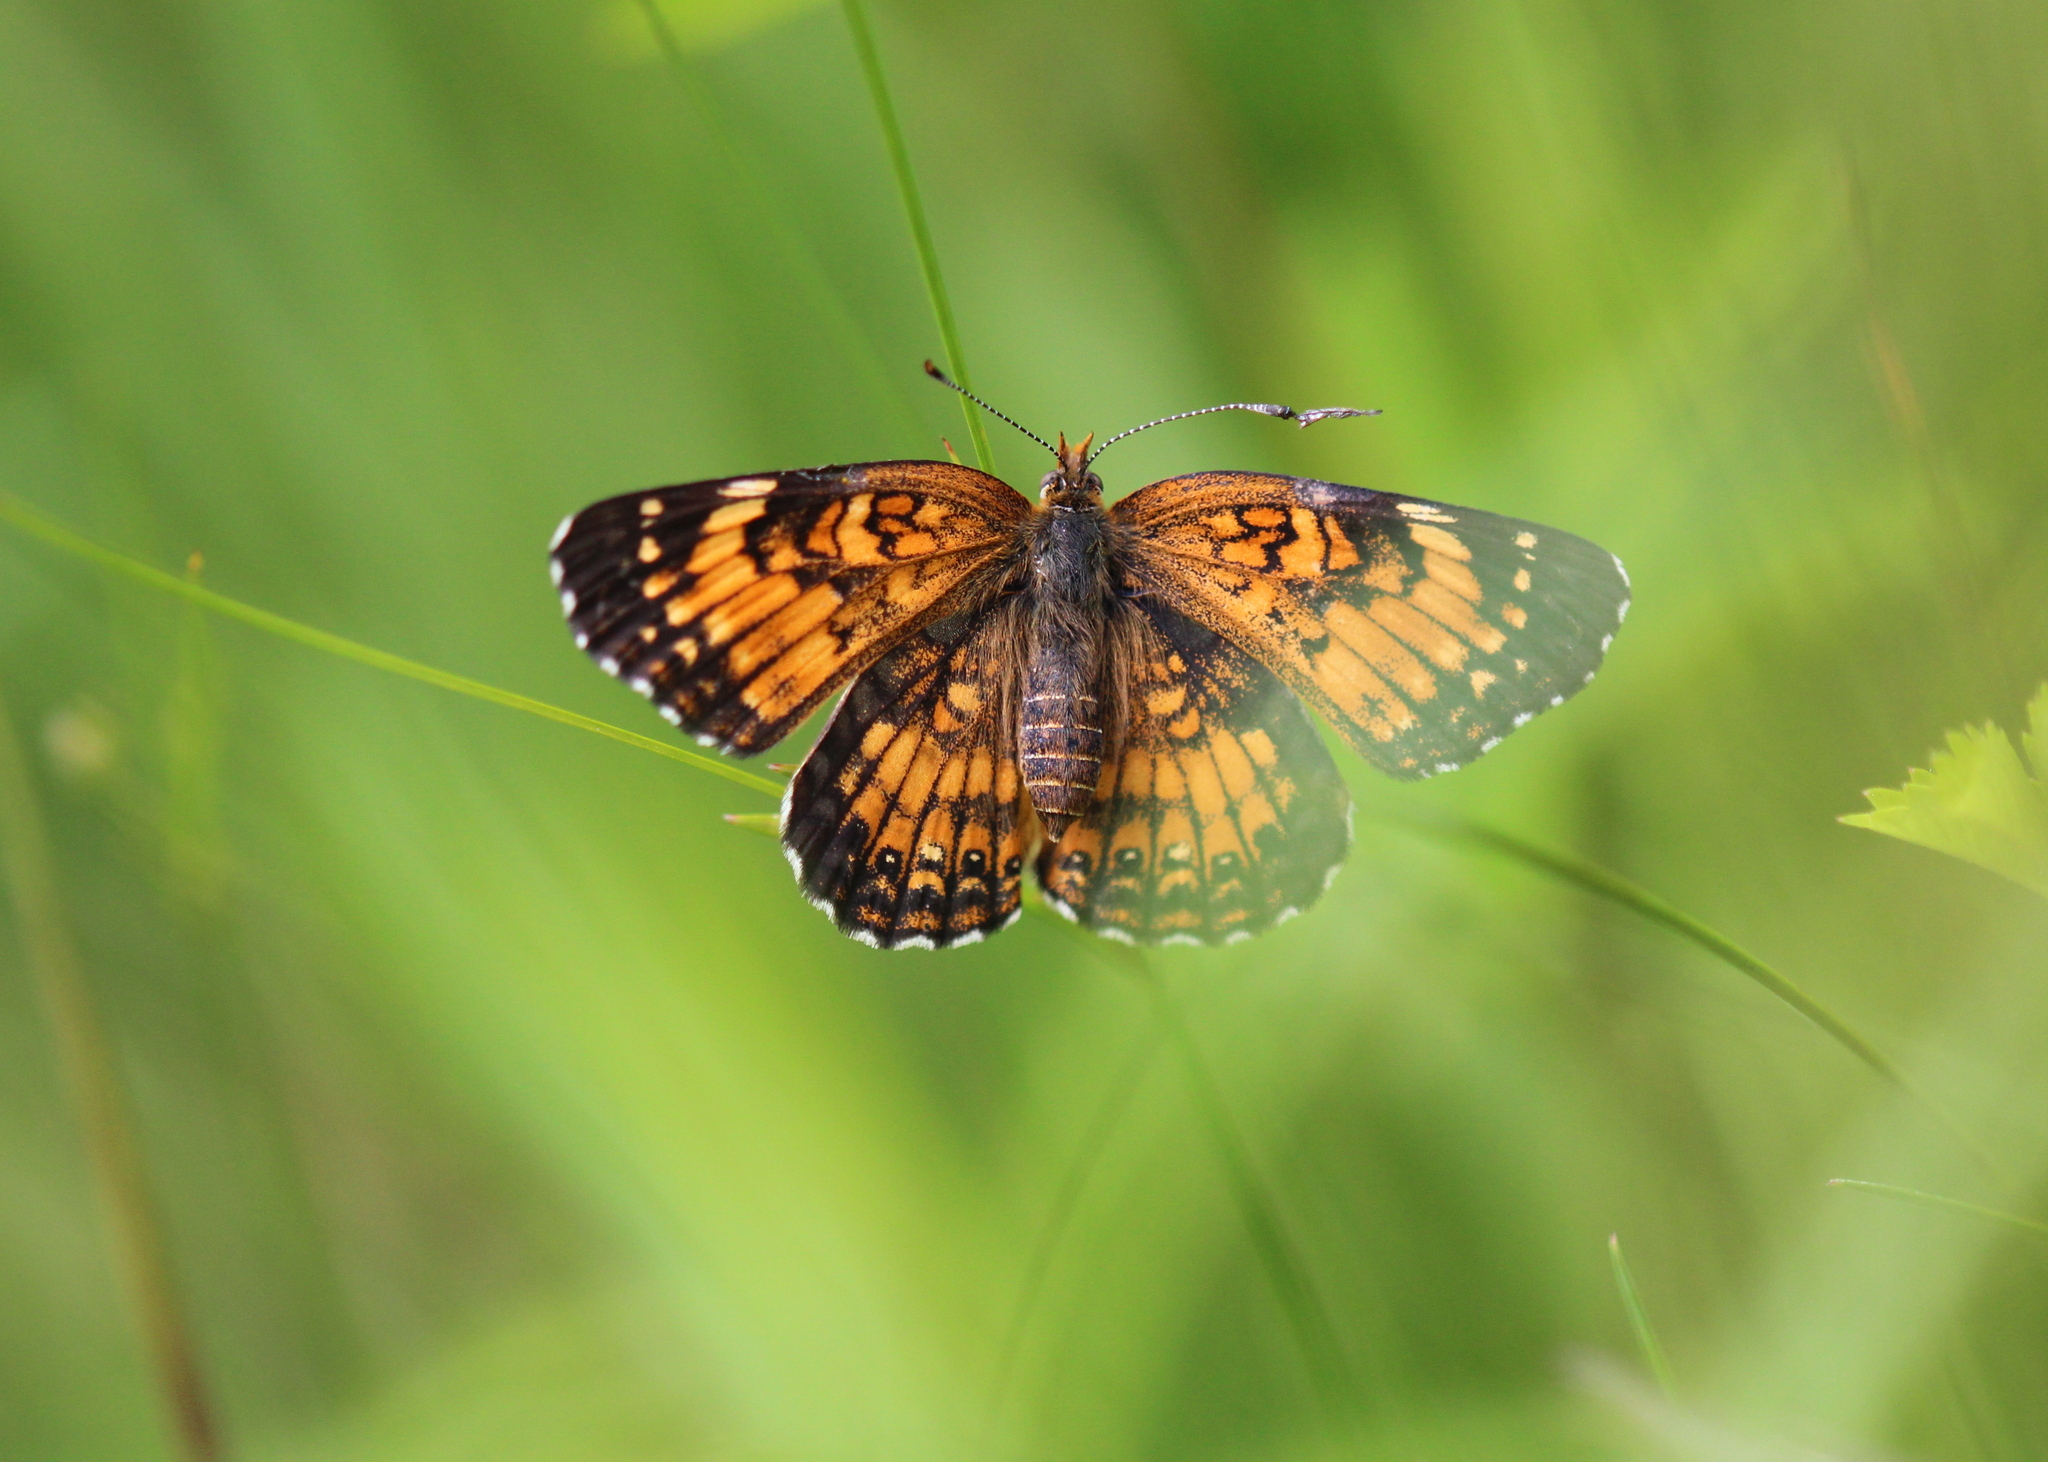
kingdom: Animalia
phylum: Arthropoda
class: Insecta
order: Lepidoptera
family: Nymphalidae
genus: Chlosyne
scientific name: Chlosyne harrisii
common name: Harris's checkerspot
